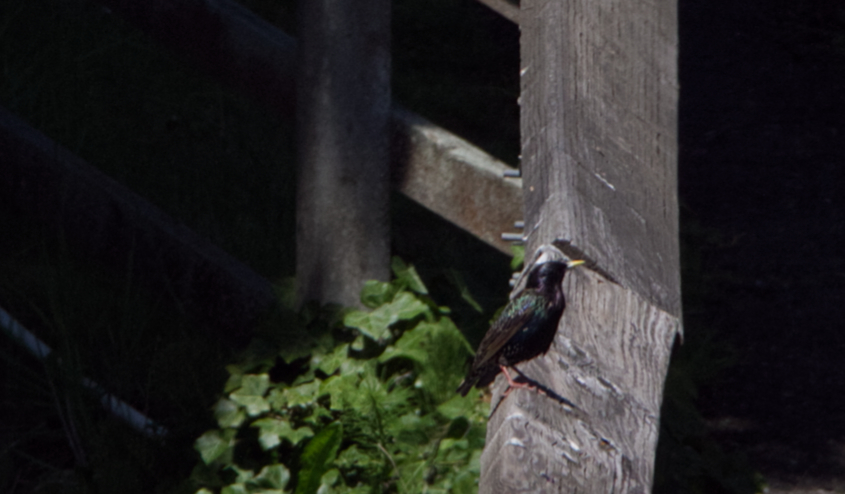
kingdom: Animalia
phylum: Chordata
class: Aves
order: Passeriformes
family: Sturnidae
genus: Sturnus
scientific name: Sturnus vulgaris
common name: Common starling
